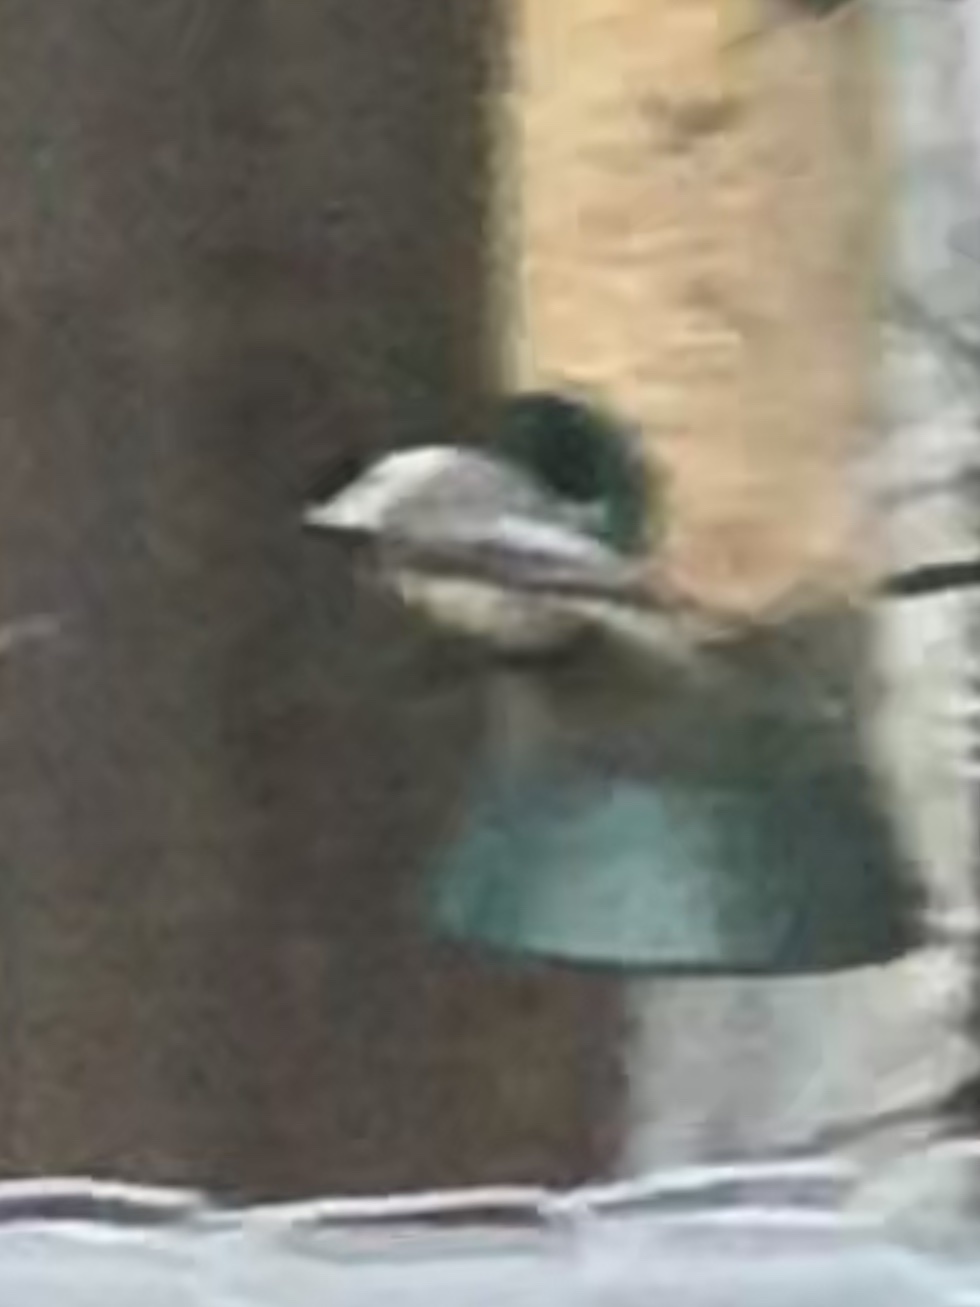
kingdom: Animalia
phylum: Chordata
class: Aves
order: Passeriformes
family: Paridae
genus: Poecile
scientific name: Poecile carolinensis
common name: Carolina chickadee
